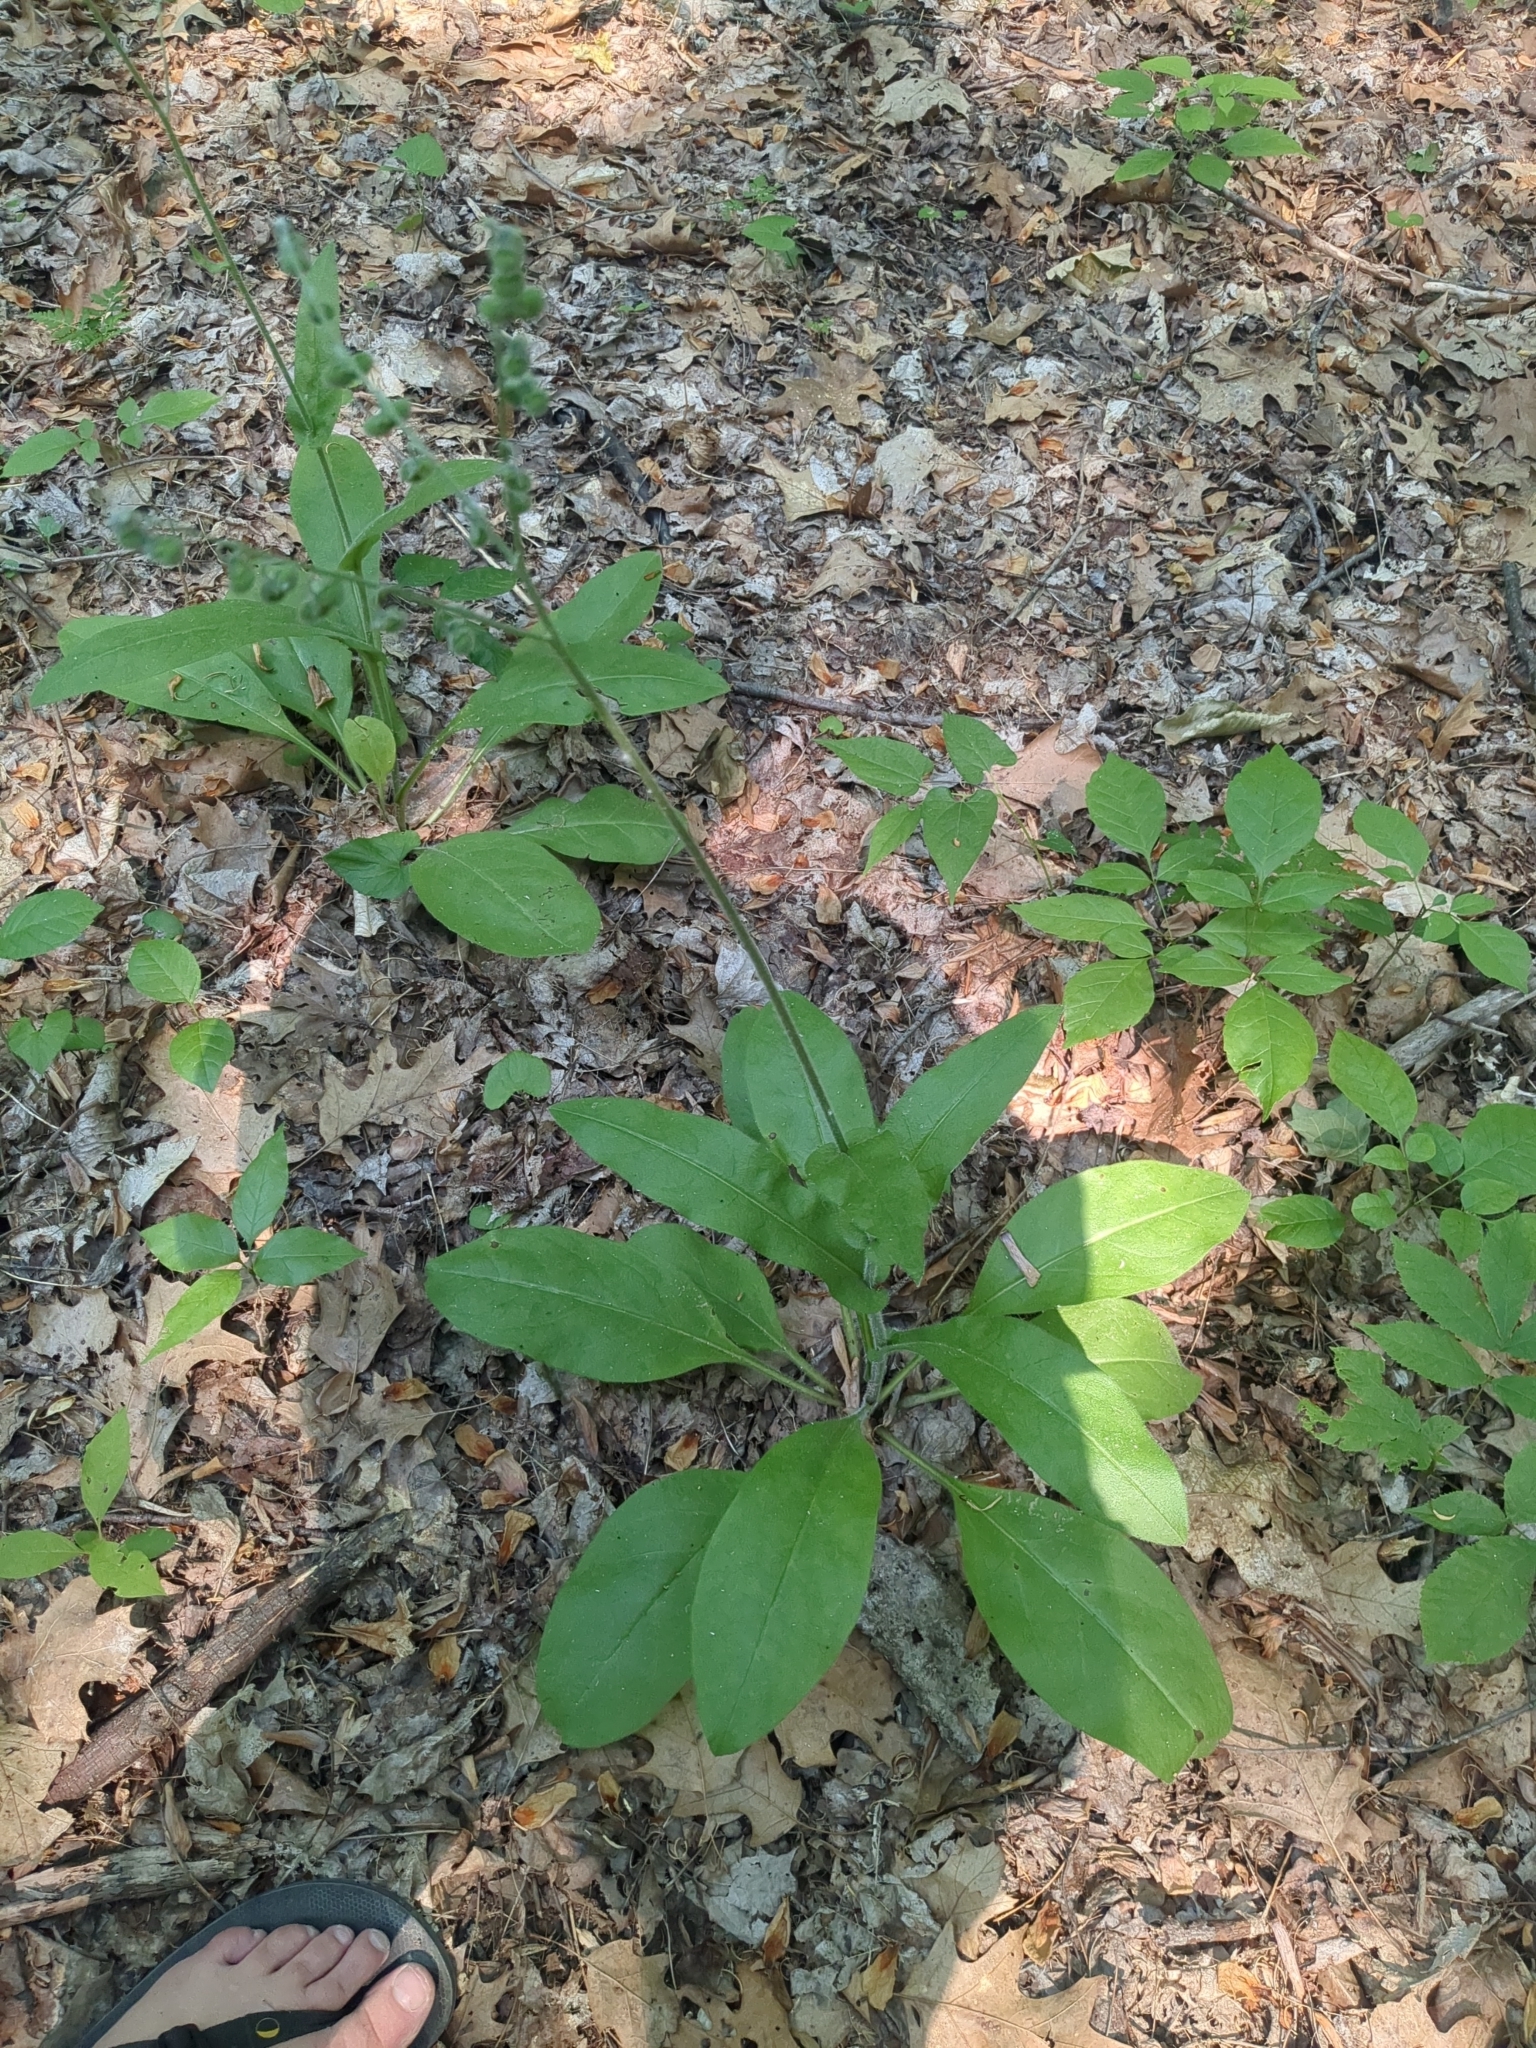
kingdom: Plantae
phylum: Tracheophyta
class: Magnoliopsida
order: Boraginales
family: Boraginaceae
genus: Andersonglossum
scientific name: Andersonglossum virginianum
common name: Wild comfrey
